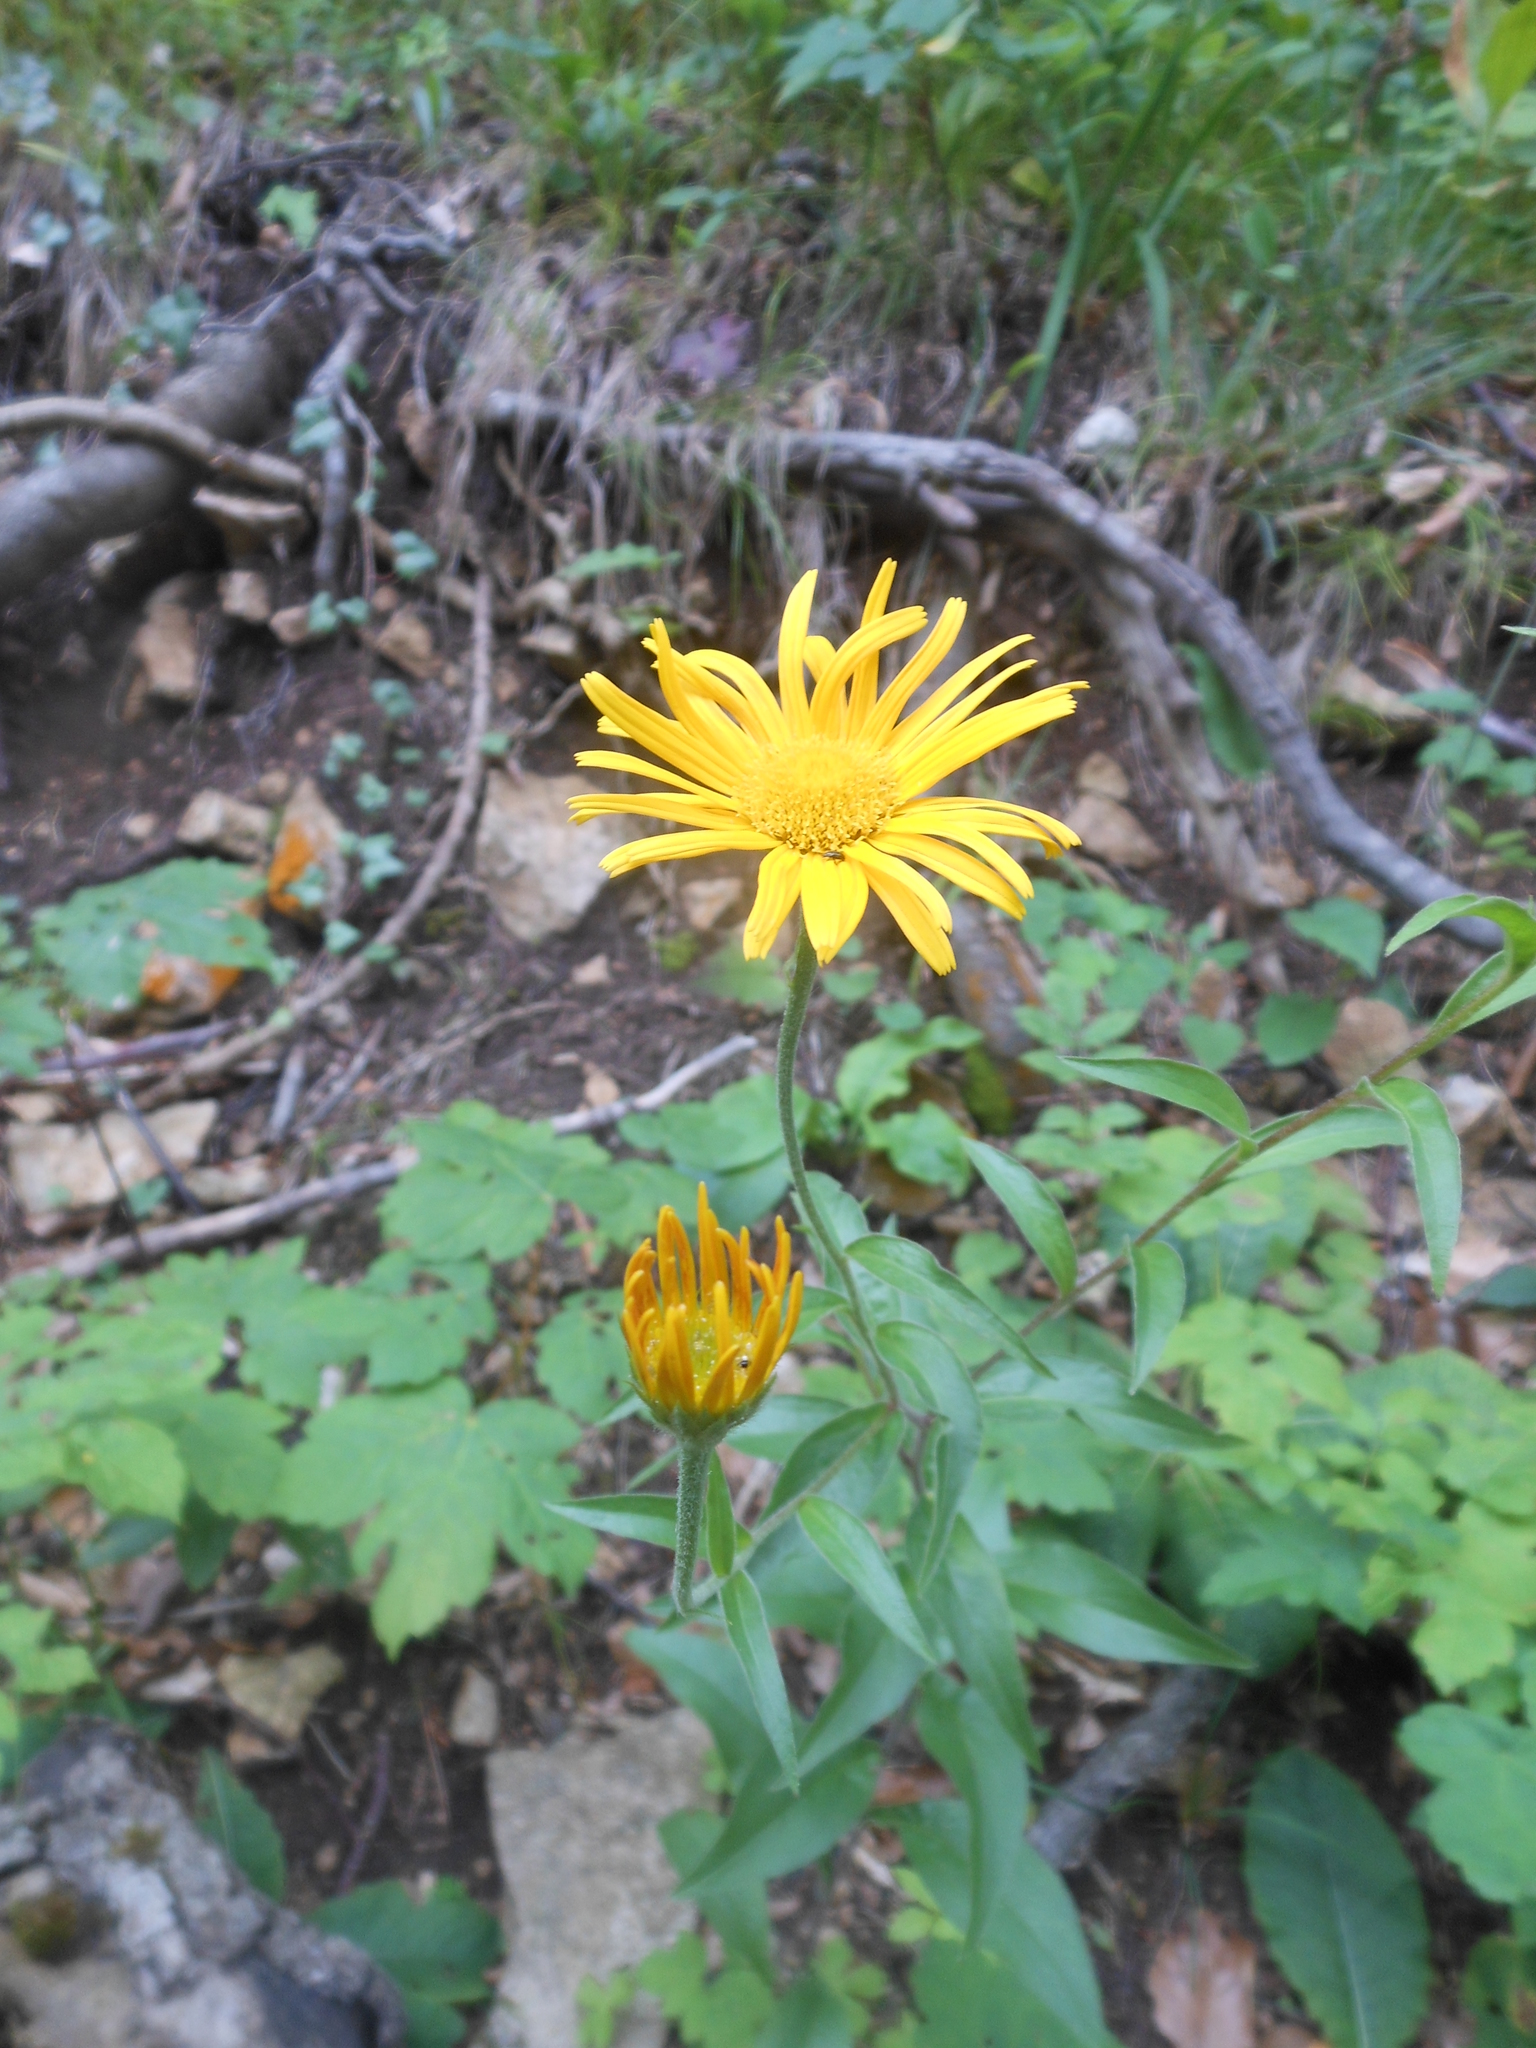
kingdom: Plantae
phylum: Tracheophyta
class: Magnoliopsida
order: Asterales
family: Asteraceae
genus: Buphthalmum
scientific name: Buphthalmum salicifolium
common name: Willow-leaved yellow-oxeye
